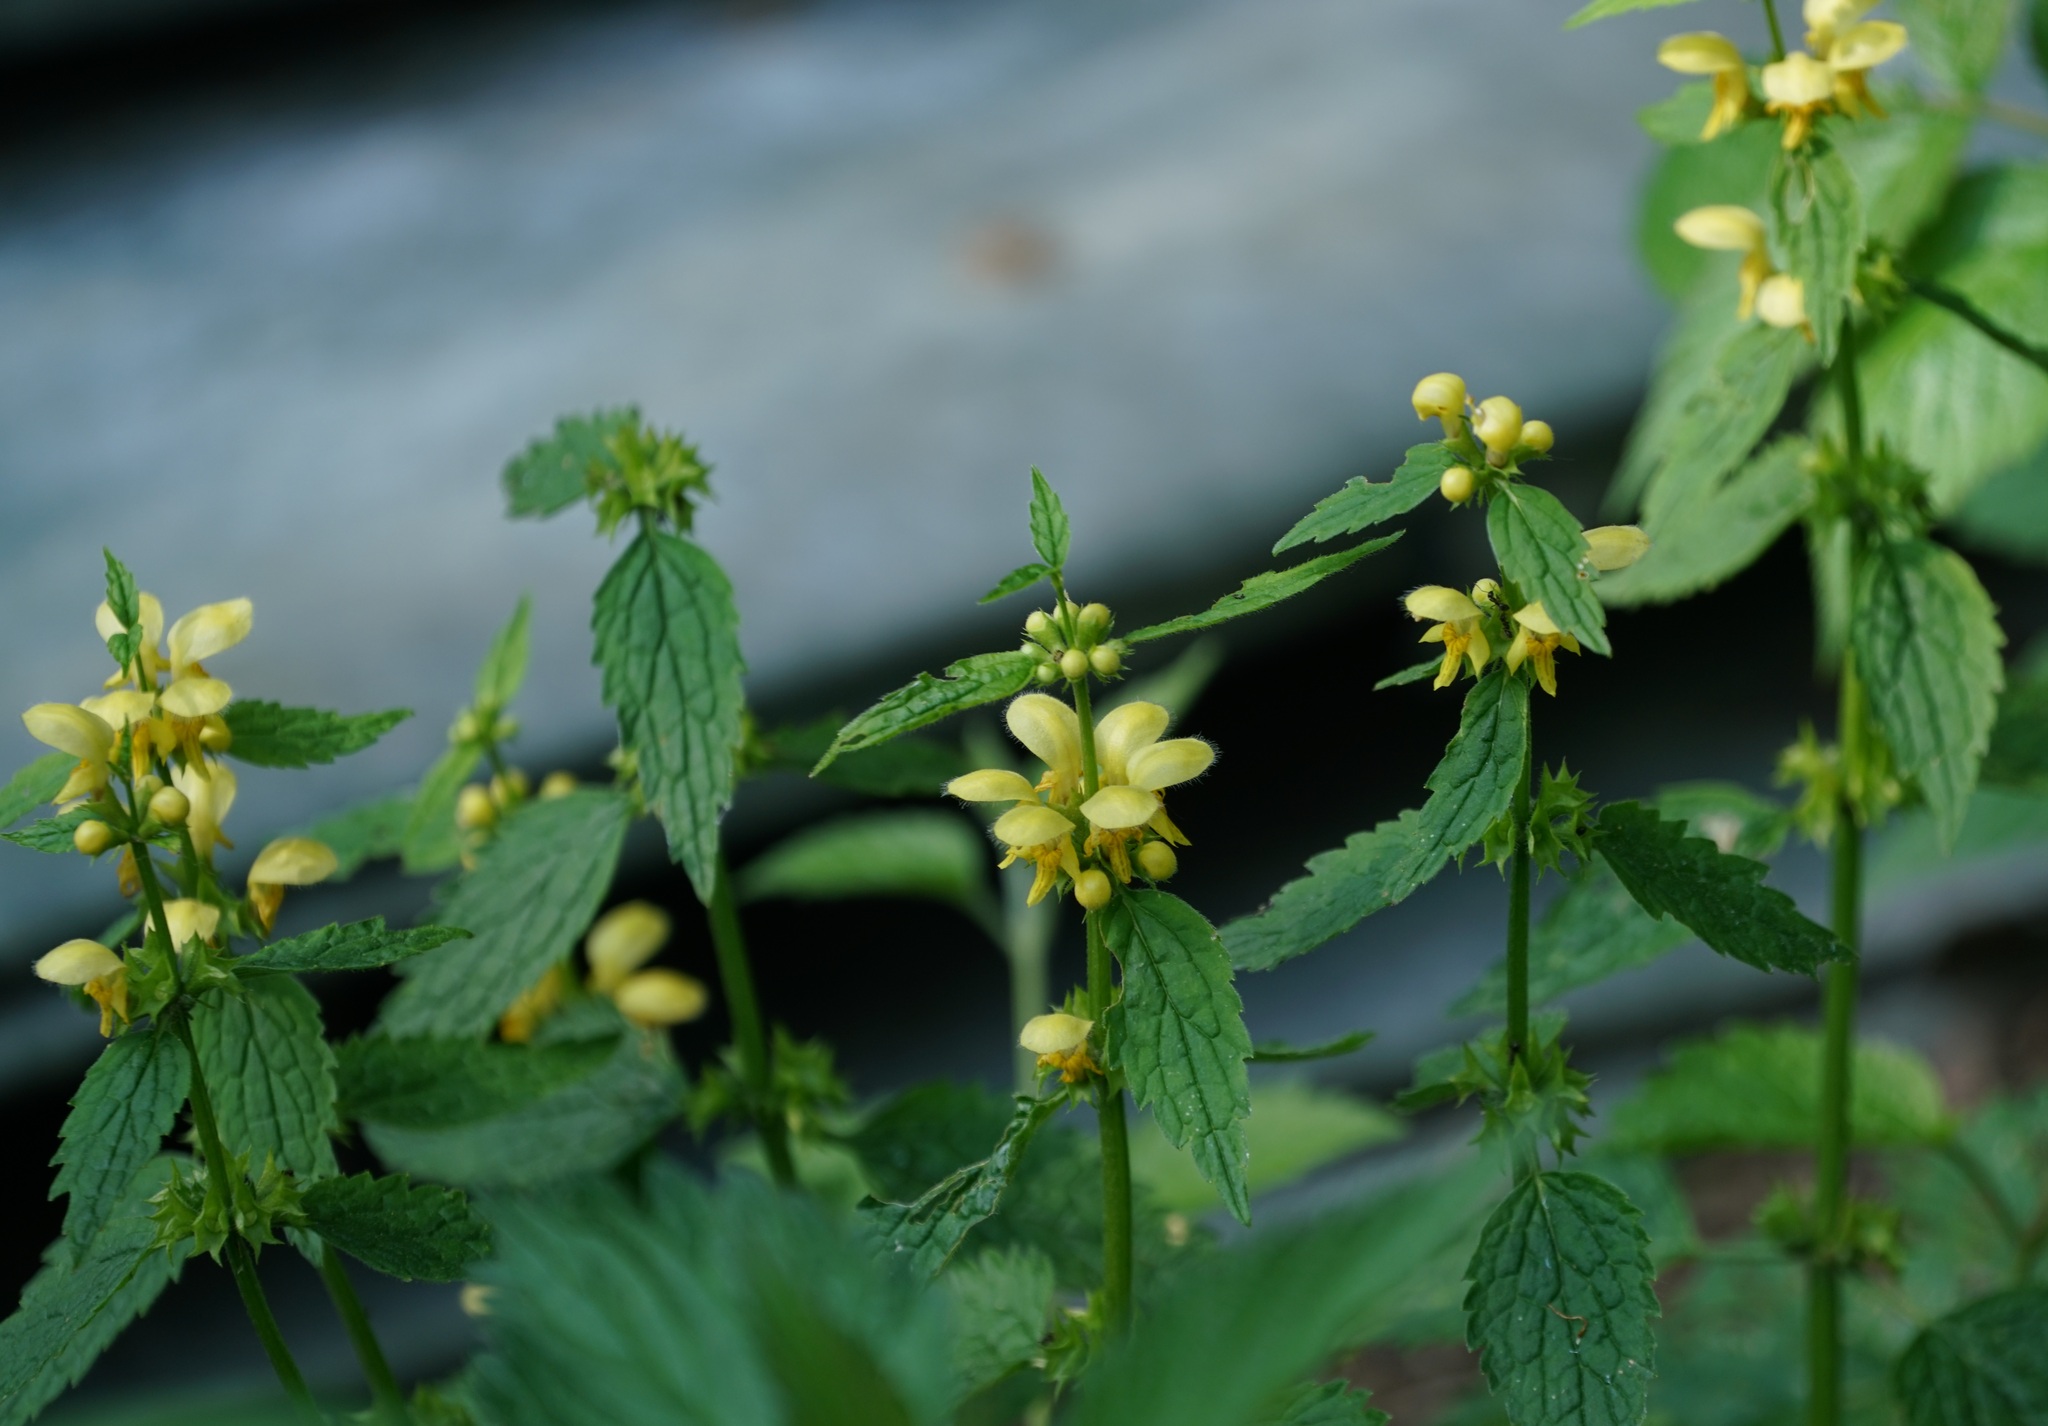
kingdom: Plantae
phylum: Tracheophyta
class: Magnoliopsida
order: Lamiales
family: Lamiaceae
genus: Lamium
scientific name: Lamium galeobdolon
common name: Yellow archangel
